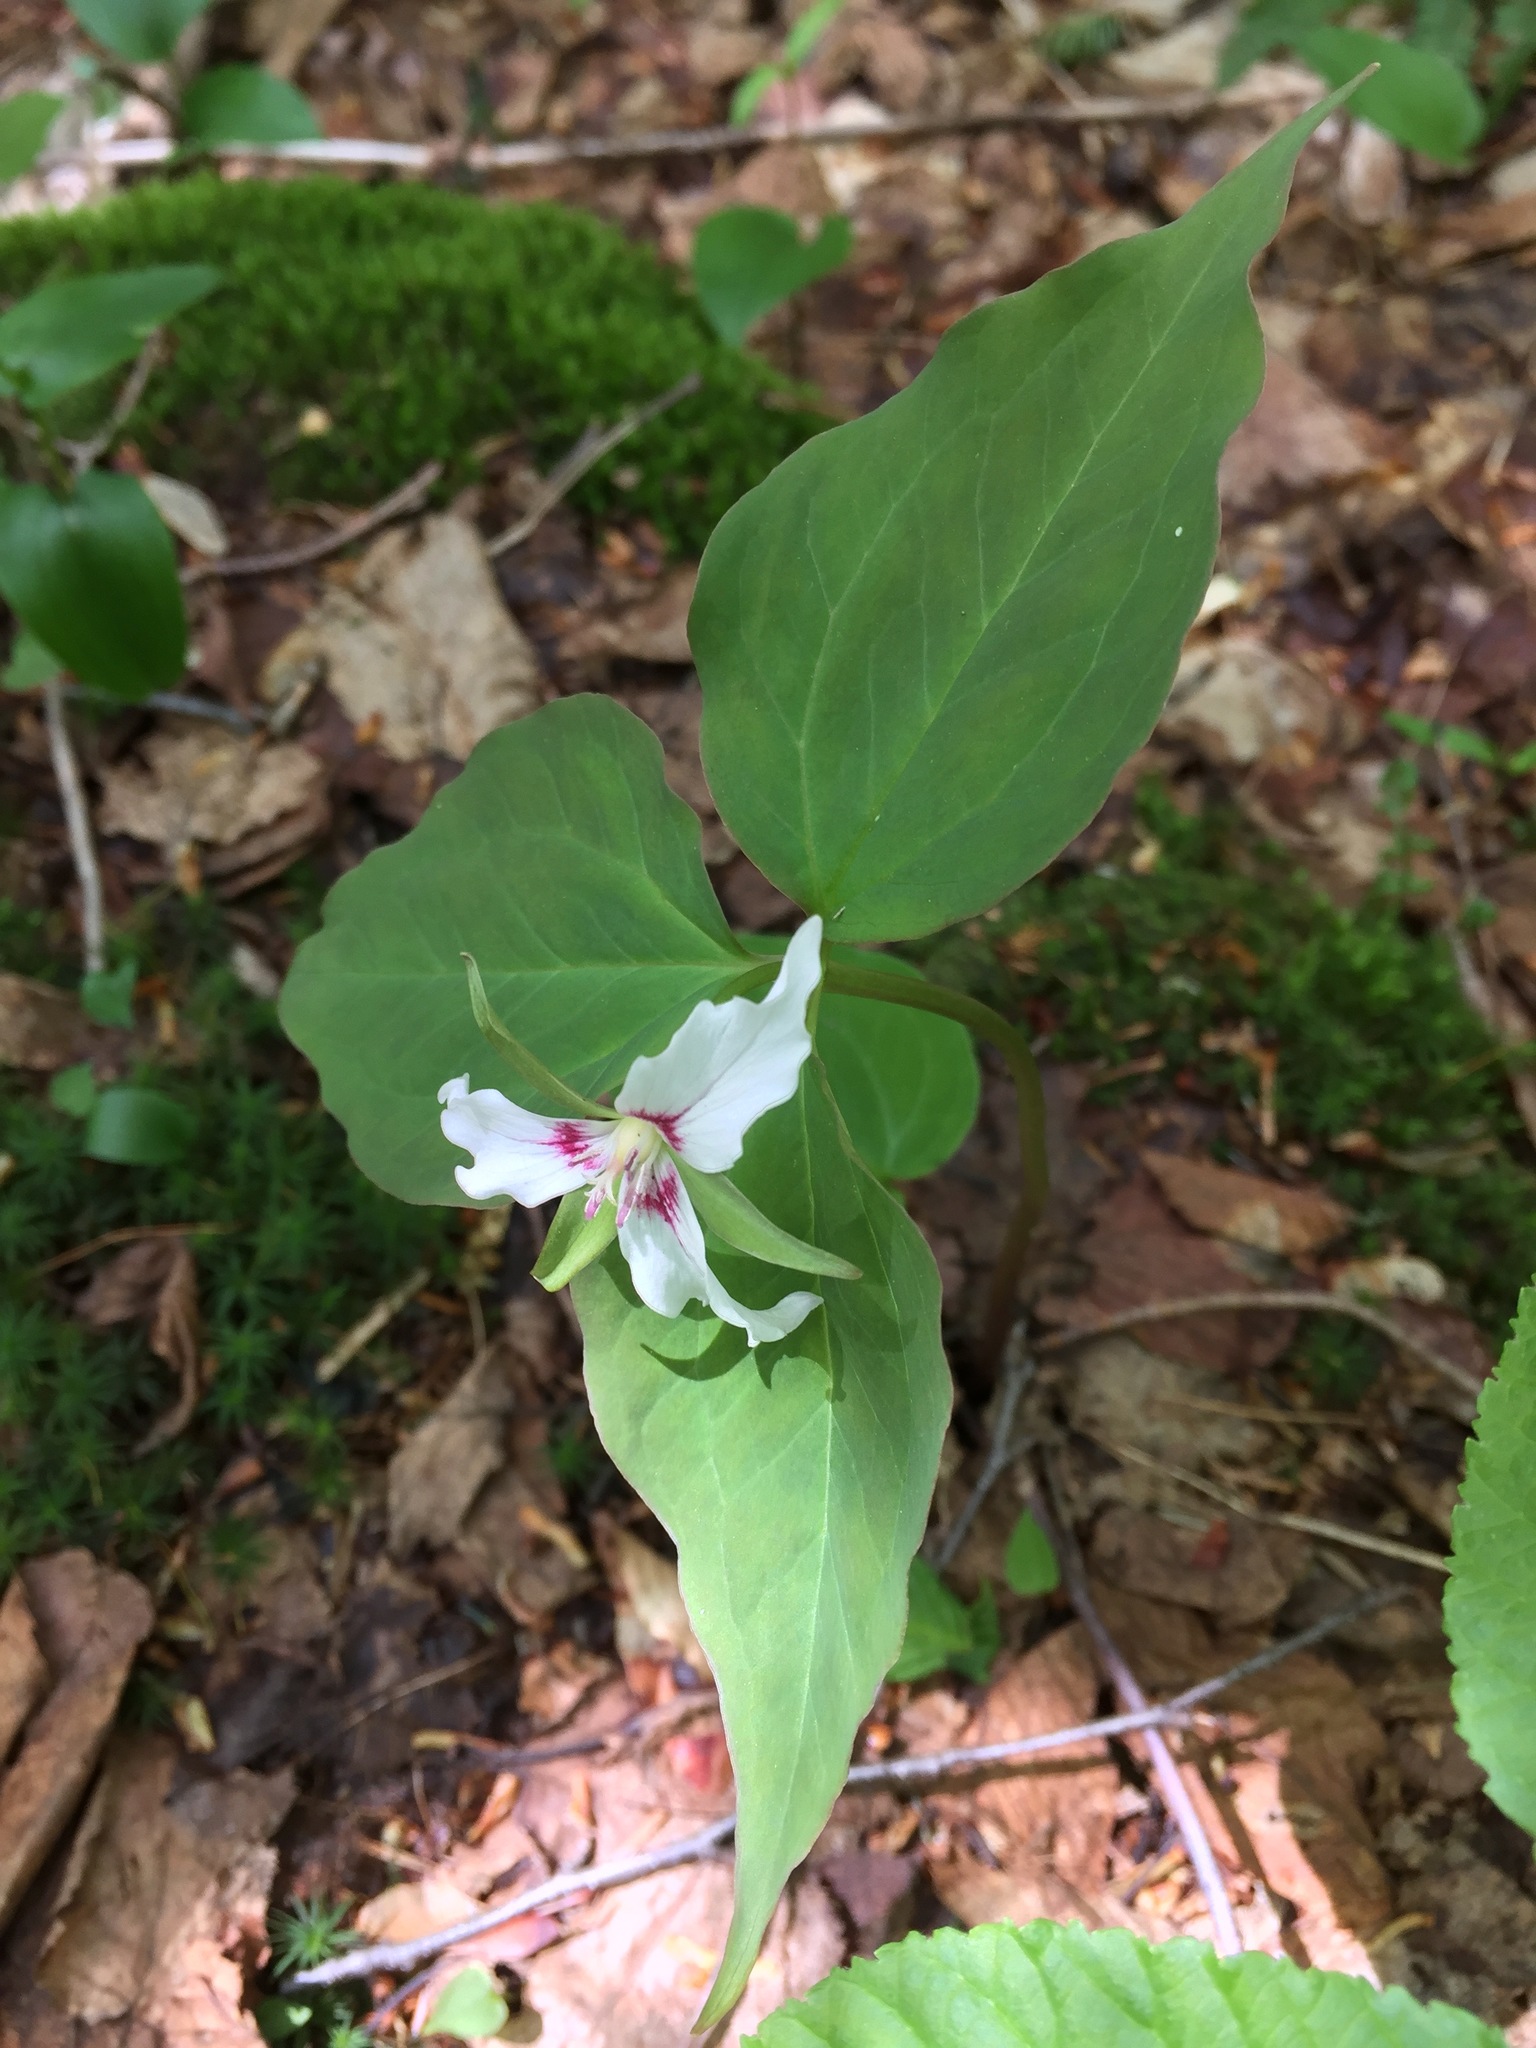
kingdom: Plantae
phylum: Tracheophyta
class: Liliopsida
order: Liliales
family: Melanthiaceae
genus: Trillium
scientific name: Trillium undulatum
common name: Paint trillium
